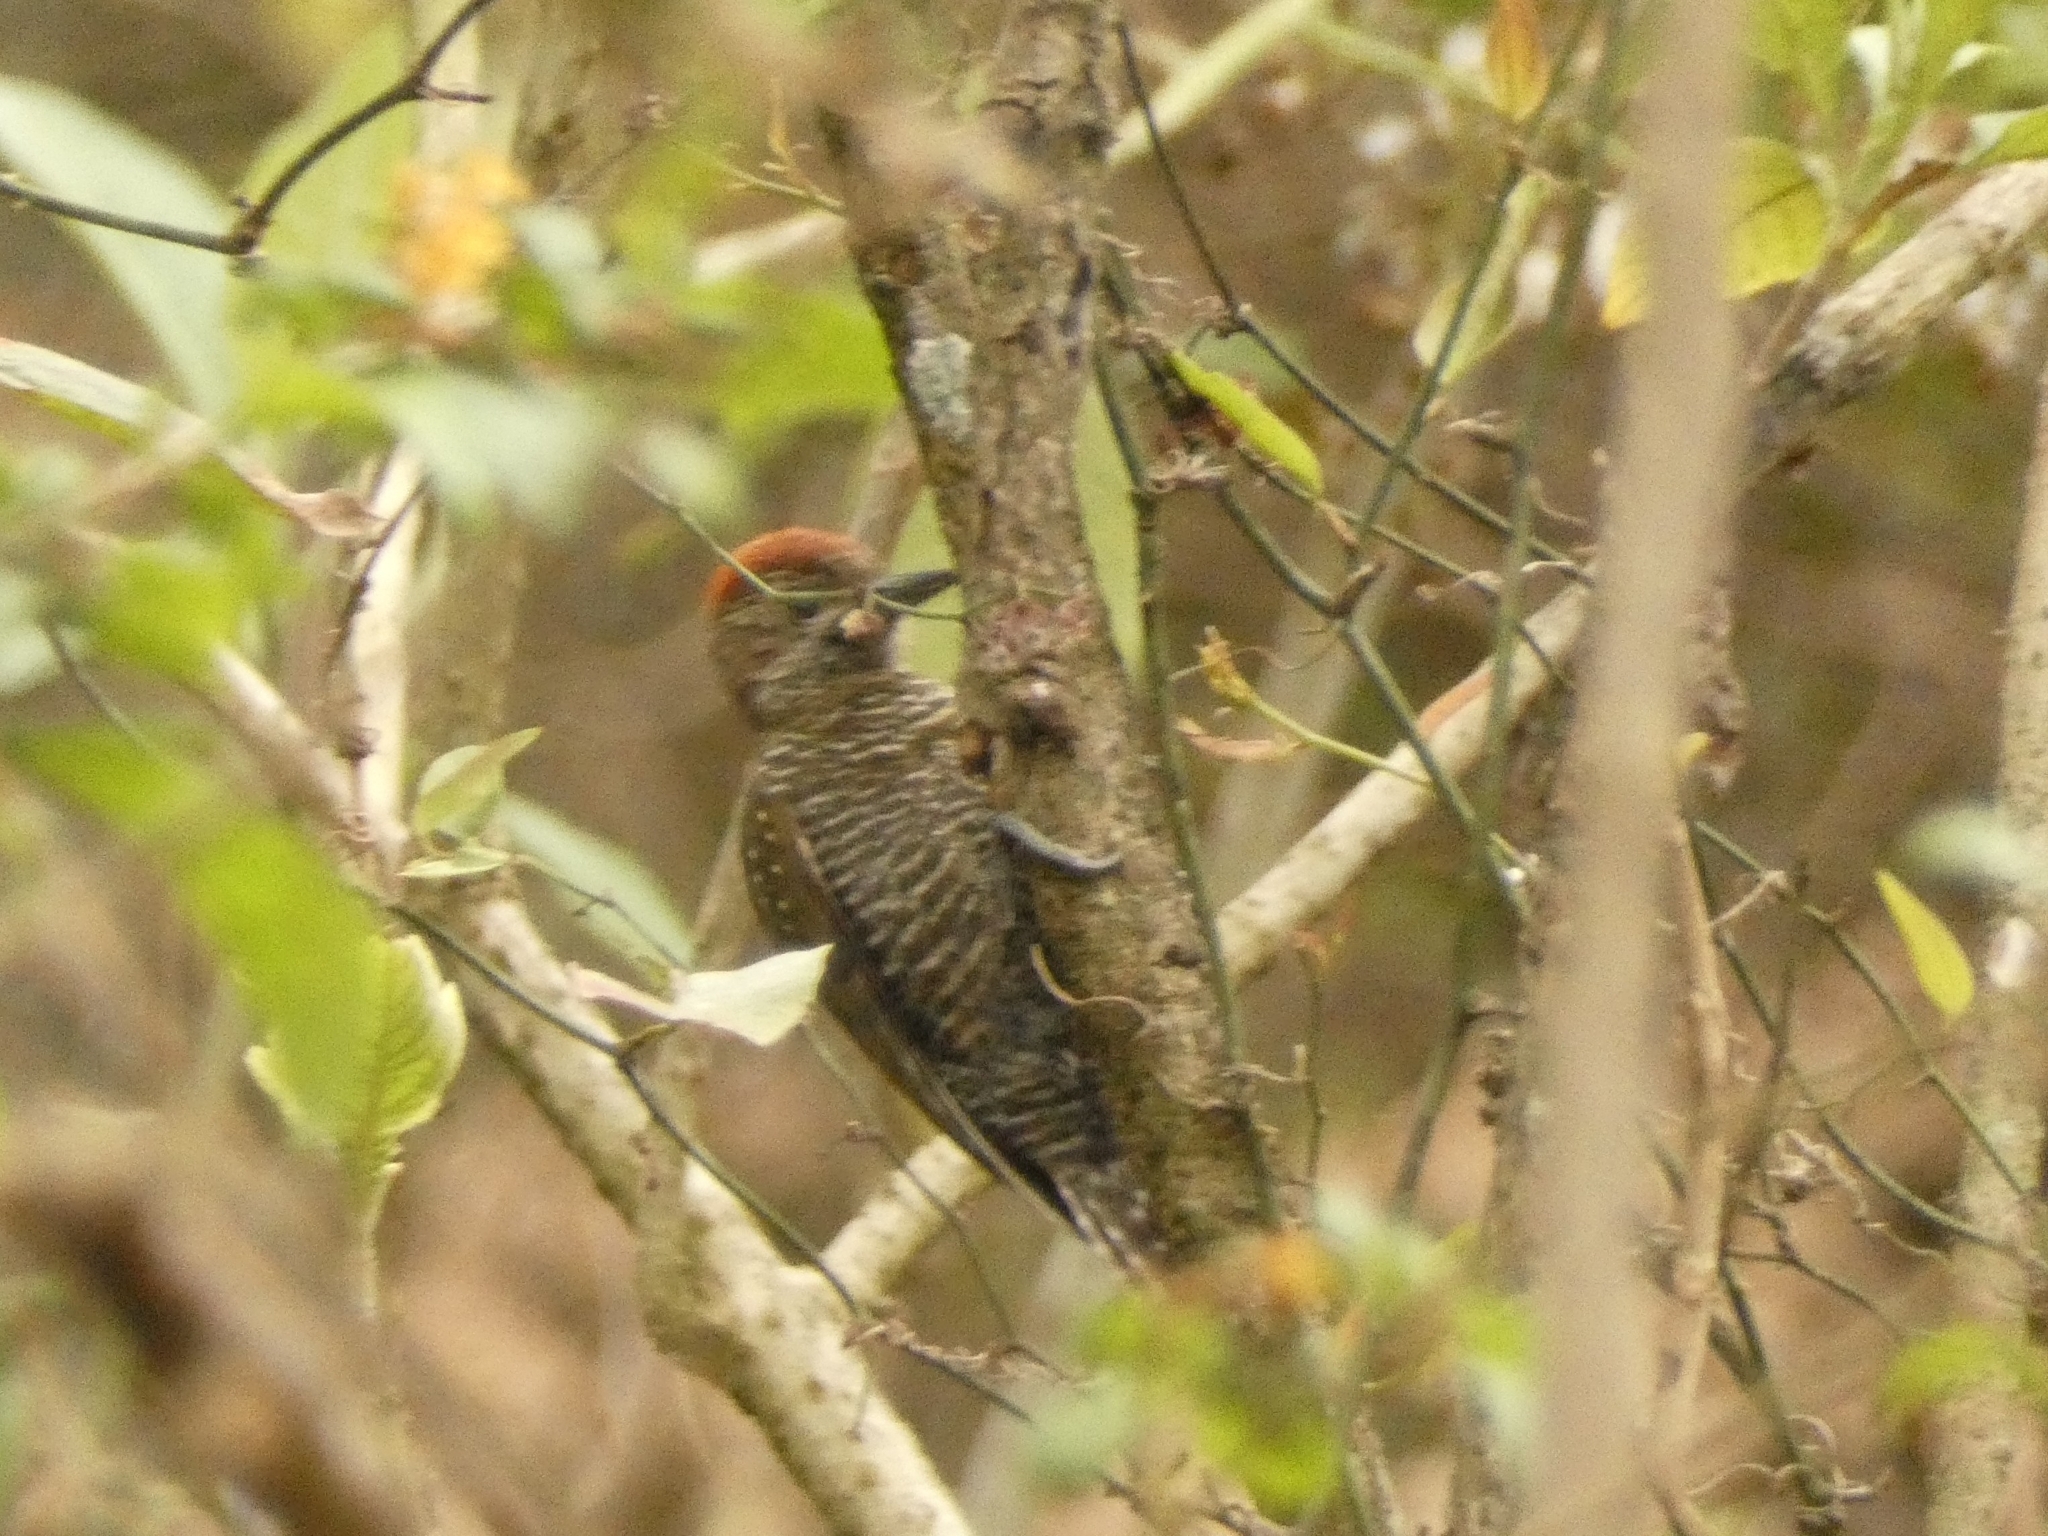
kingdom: Animalia
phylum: Chordata
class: Aves
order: Piciformes
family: Picidae
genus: Veniliornis
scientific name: Veniliornis frontalis
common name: Dot-fronted woodpecker
